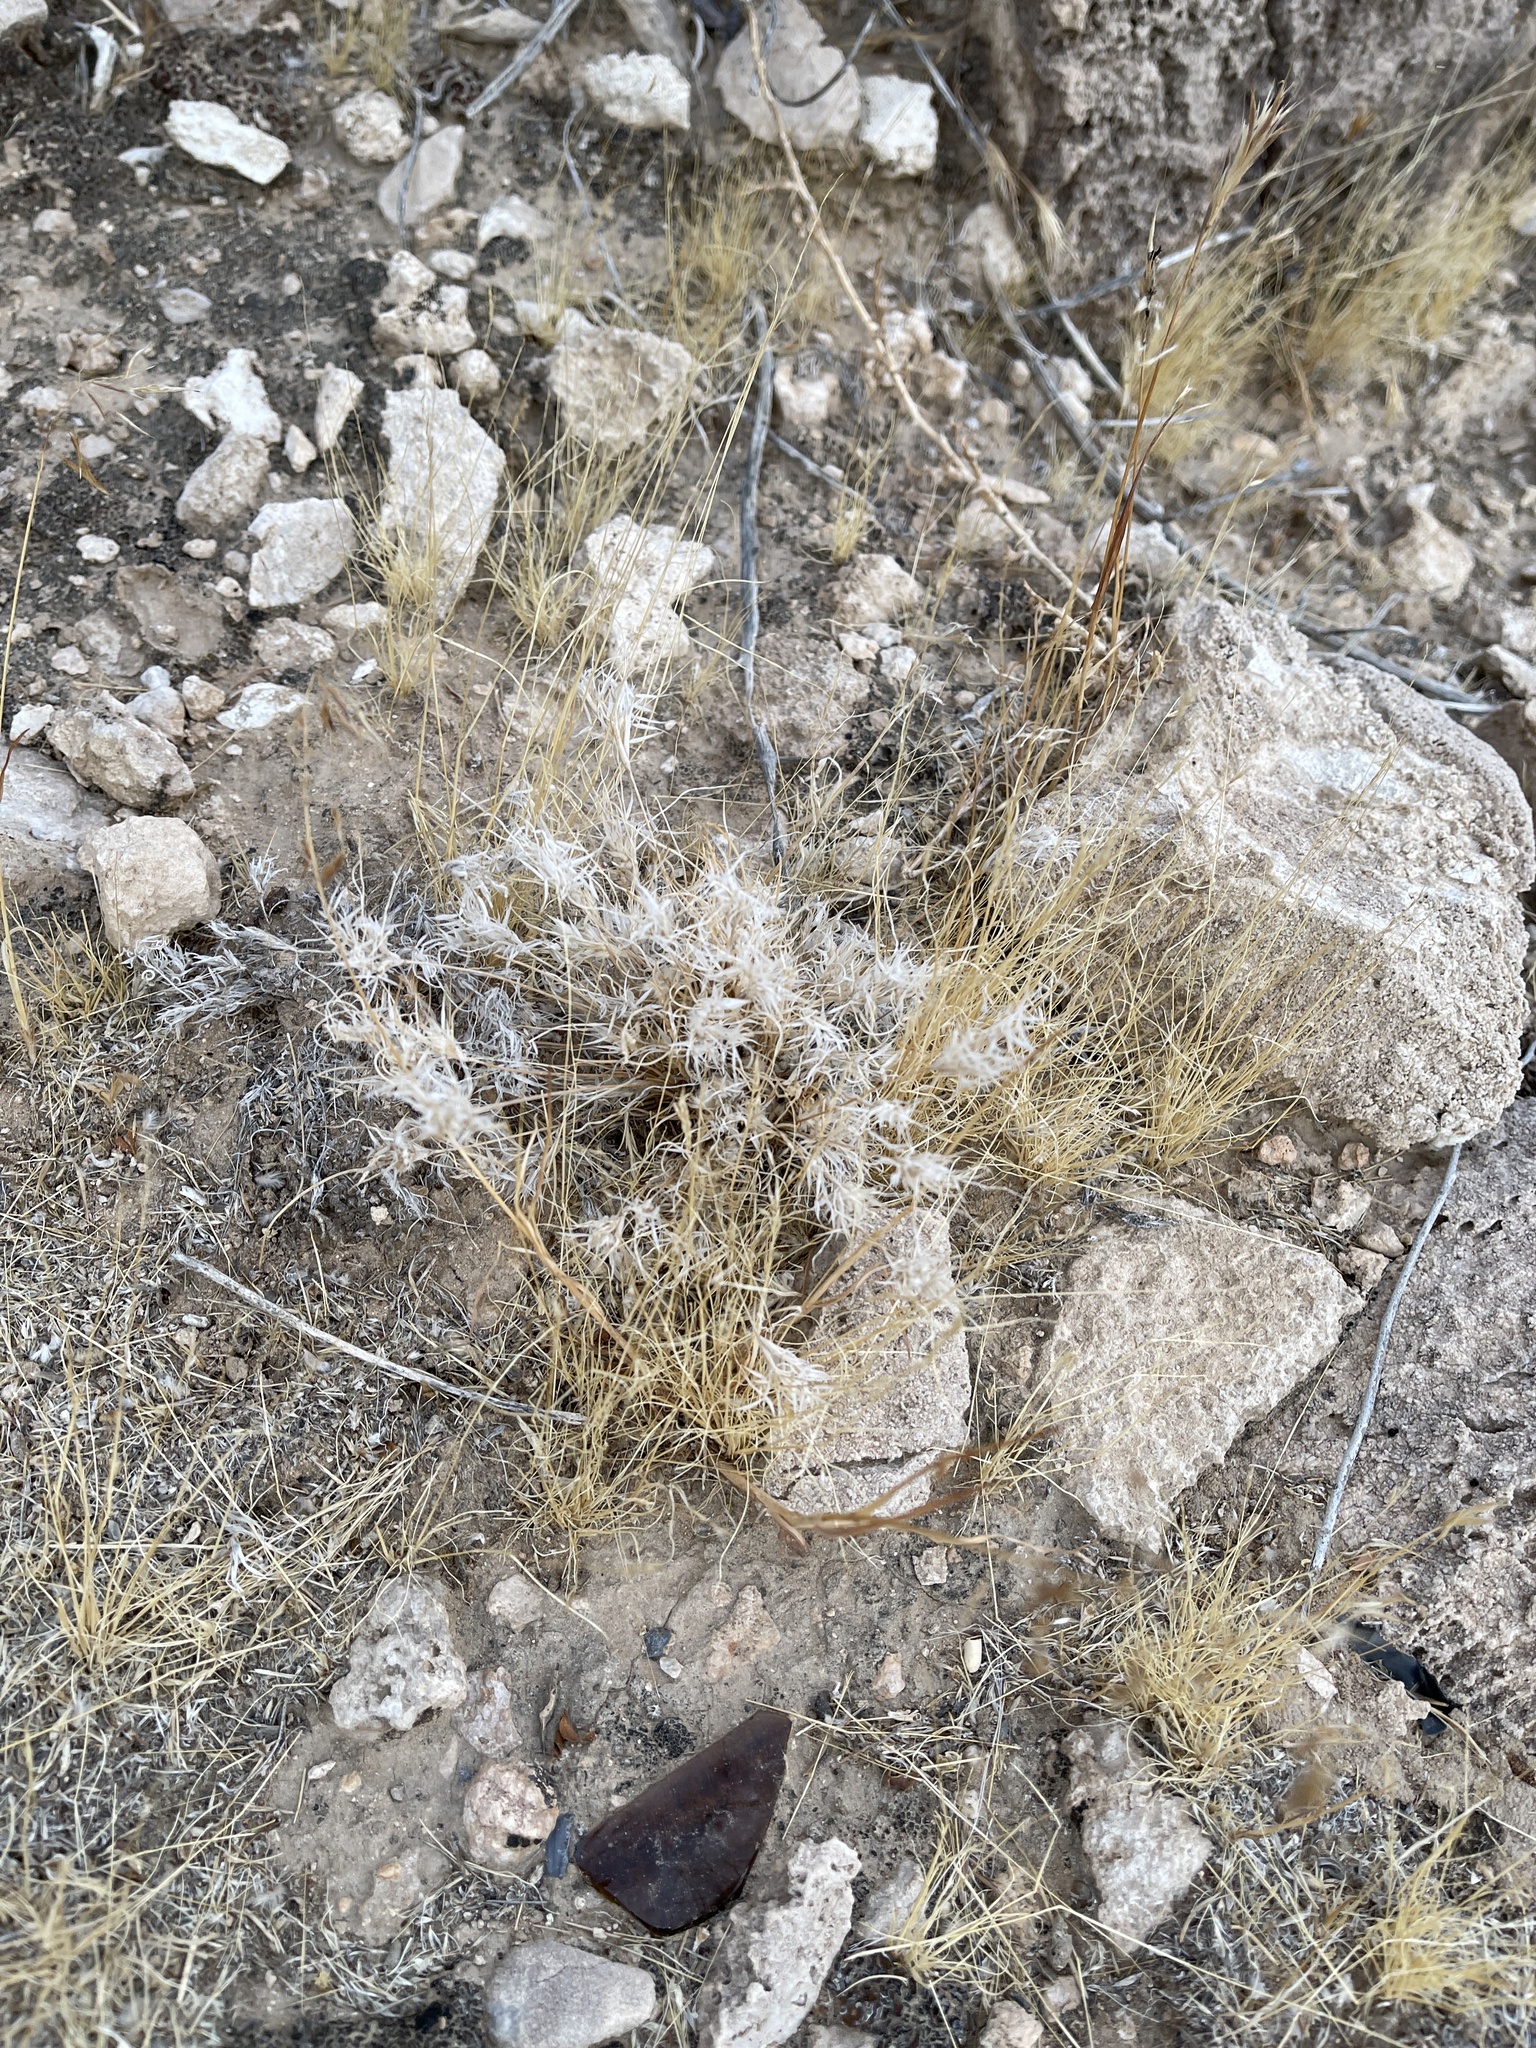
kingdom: Plantae
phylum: Tracheophyta
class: Liliopsida
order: Poales
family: Poaceae
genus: Dasyochloa
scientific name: Dasyochloa pulchella
